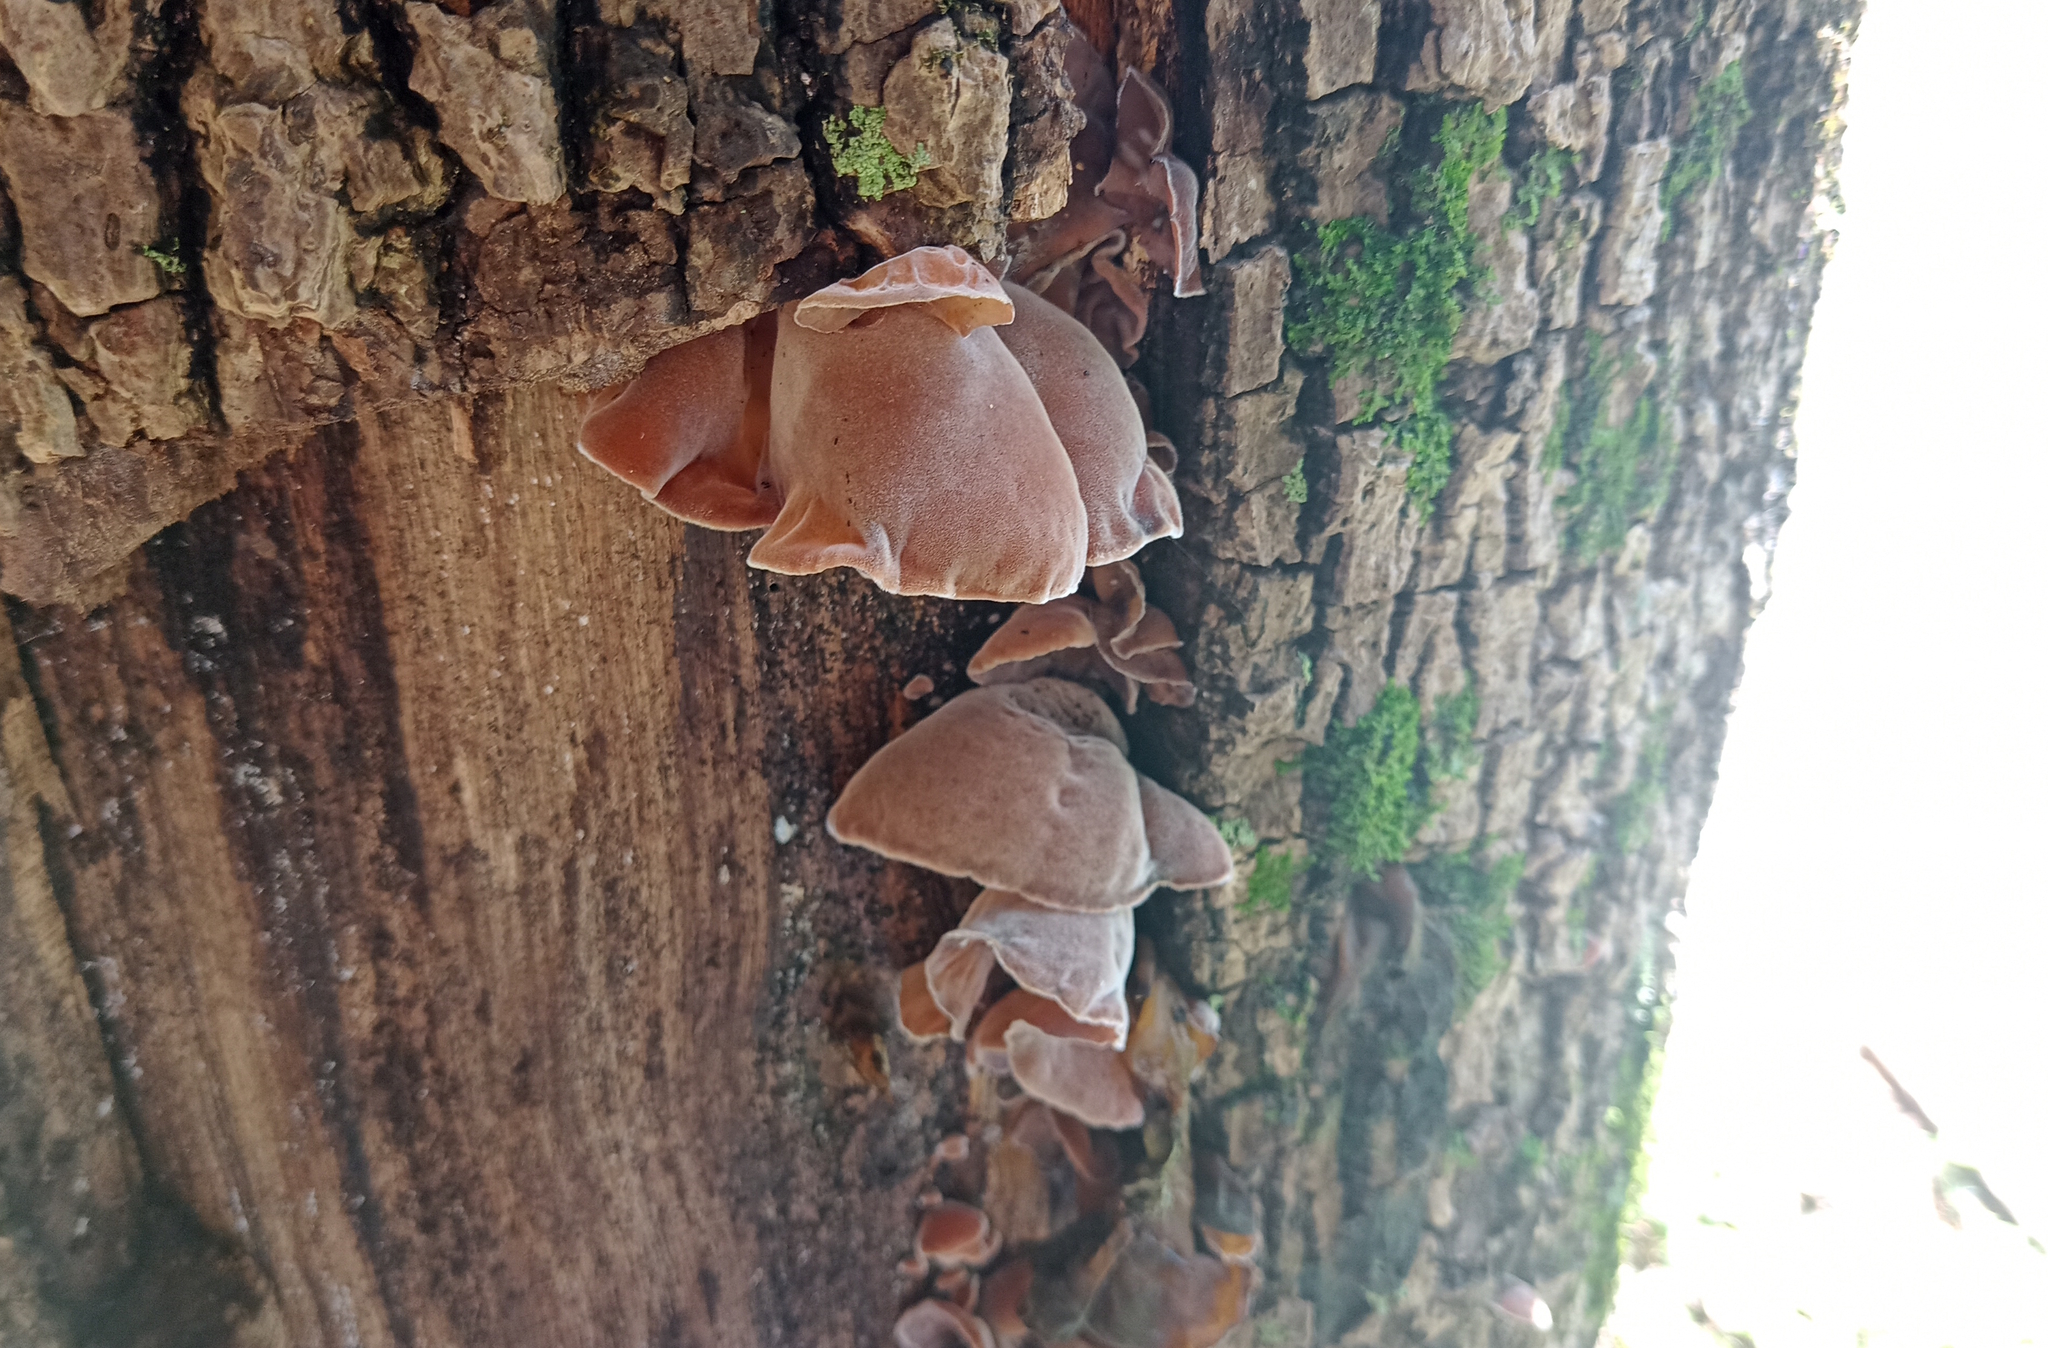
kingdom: Fungi
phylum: Basidiomycota
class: Agaricomycetes
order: Auriculariales
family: Auriculariaceae
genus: Auricularia
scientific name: Auricularia cornea
